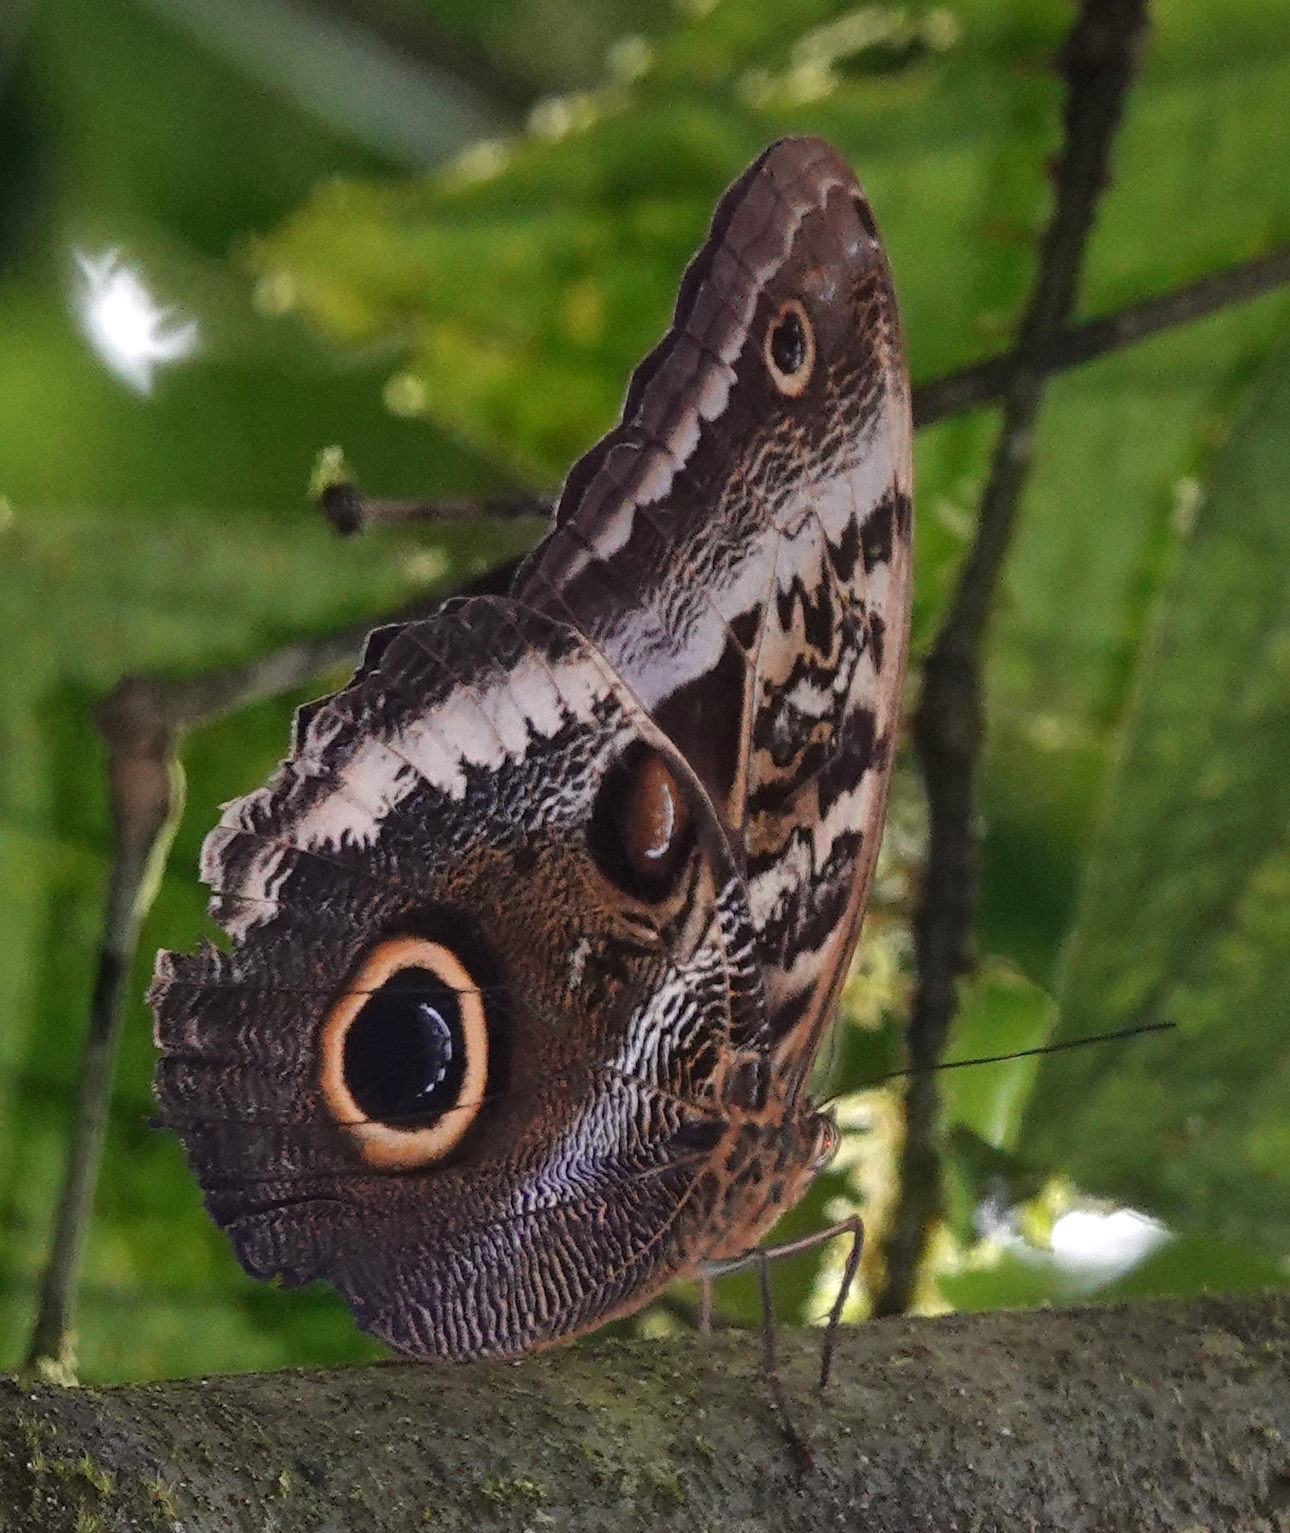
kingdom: Animalia
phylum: Arthropoda
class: Insecta
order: Lepidoptera
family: Nymphalidae
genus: Caligo
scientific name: Caligo atreus
